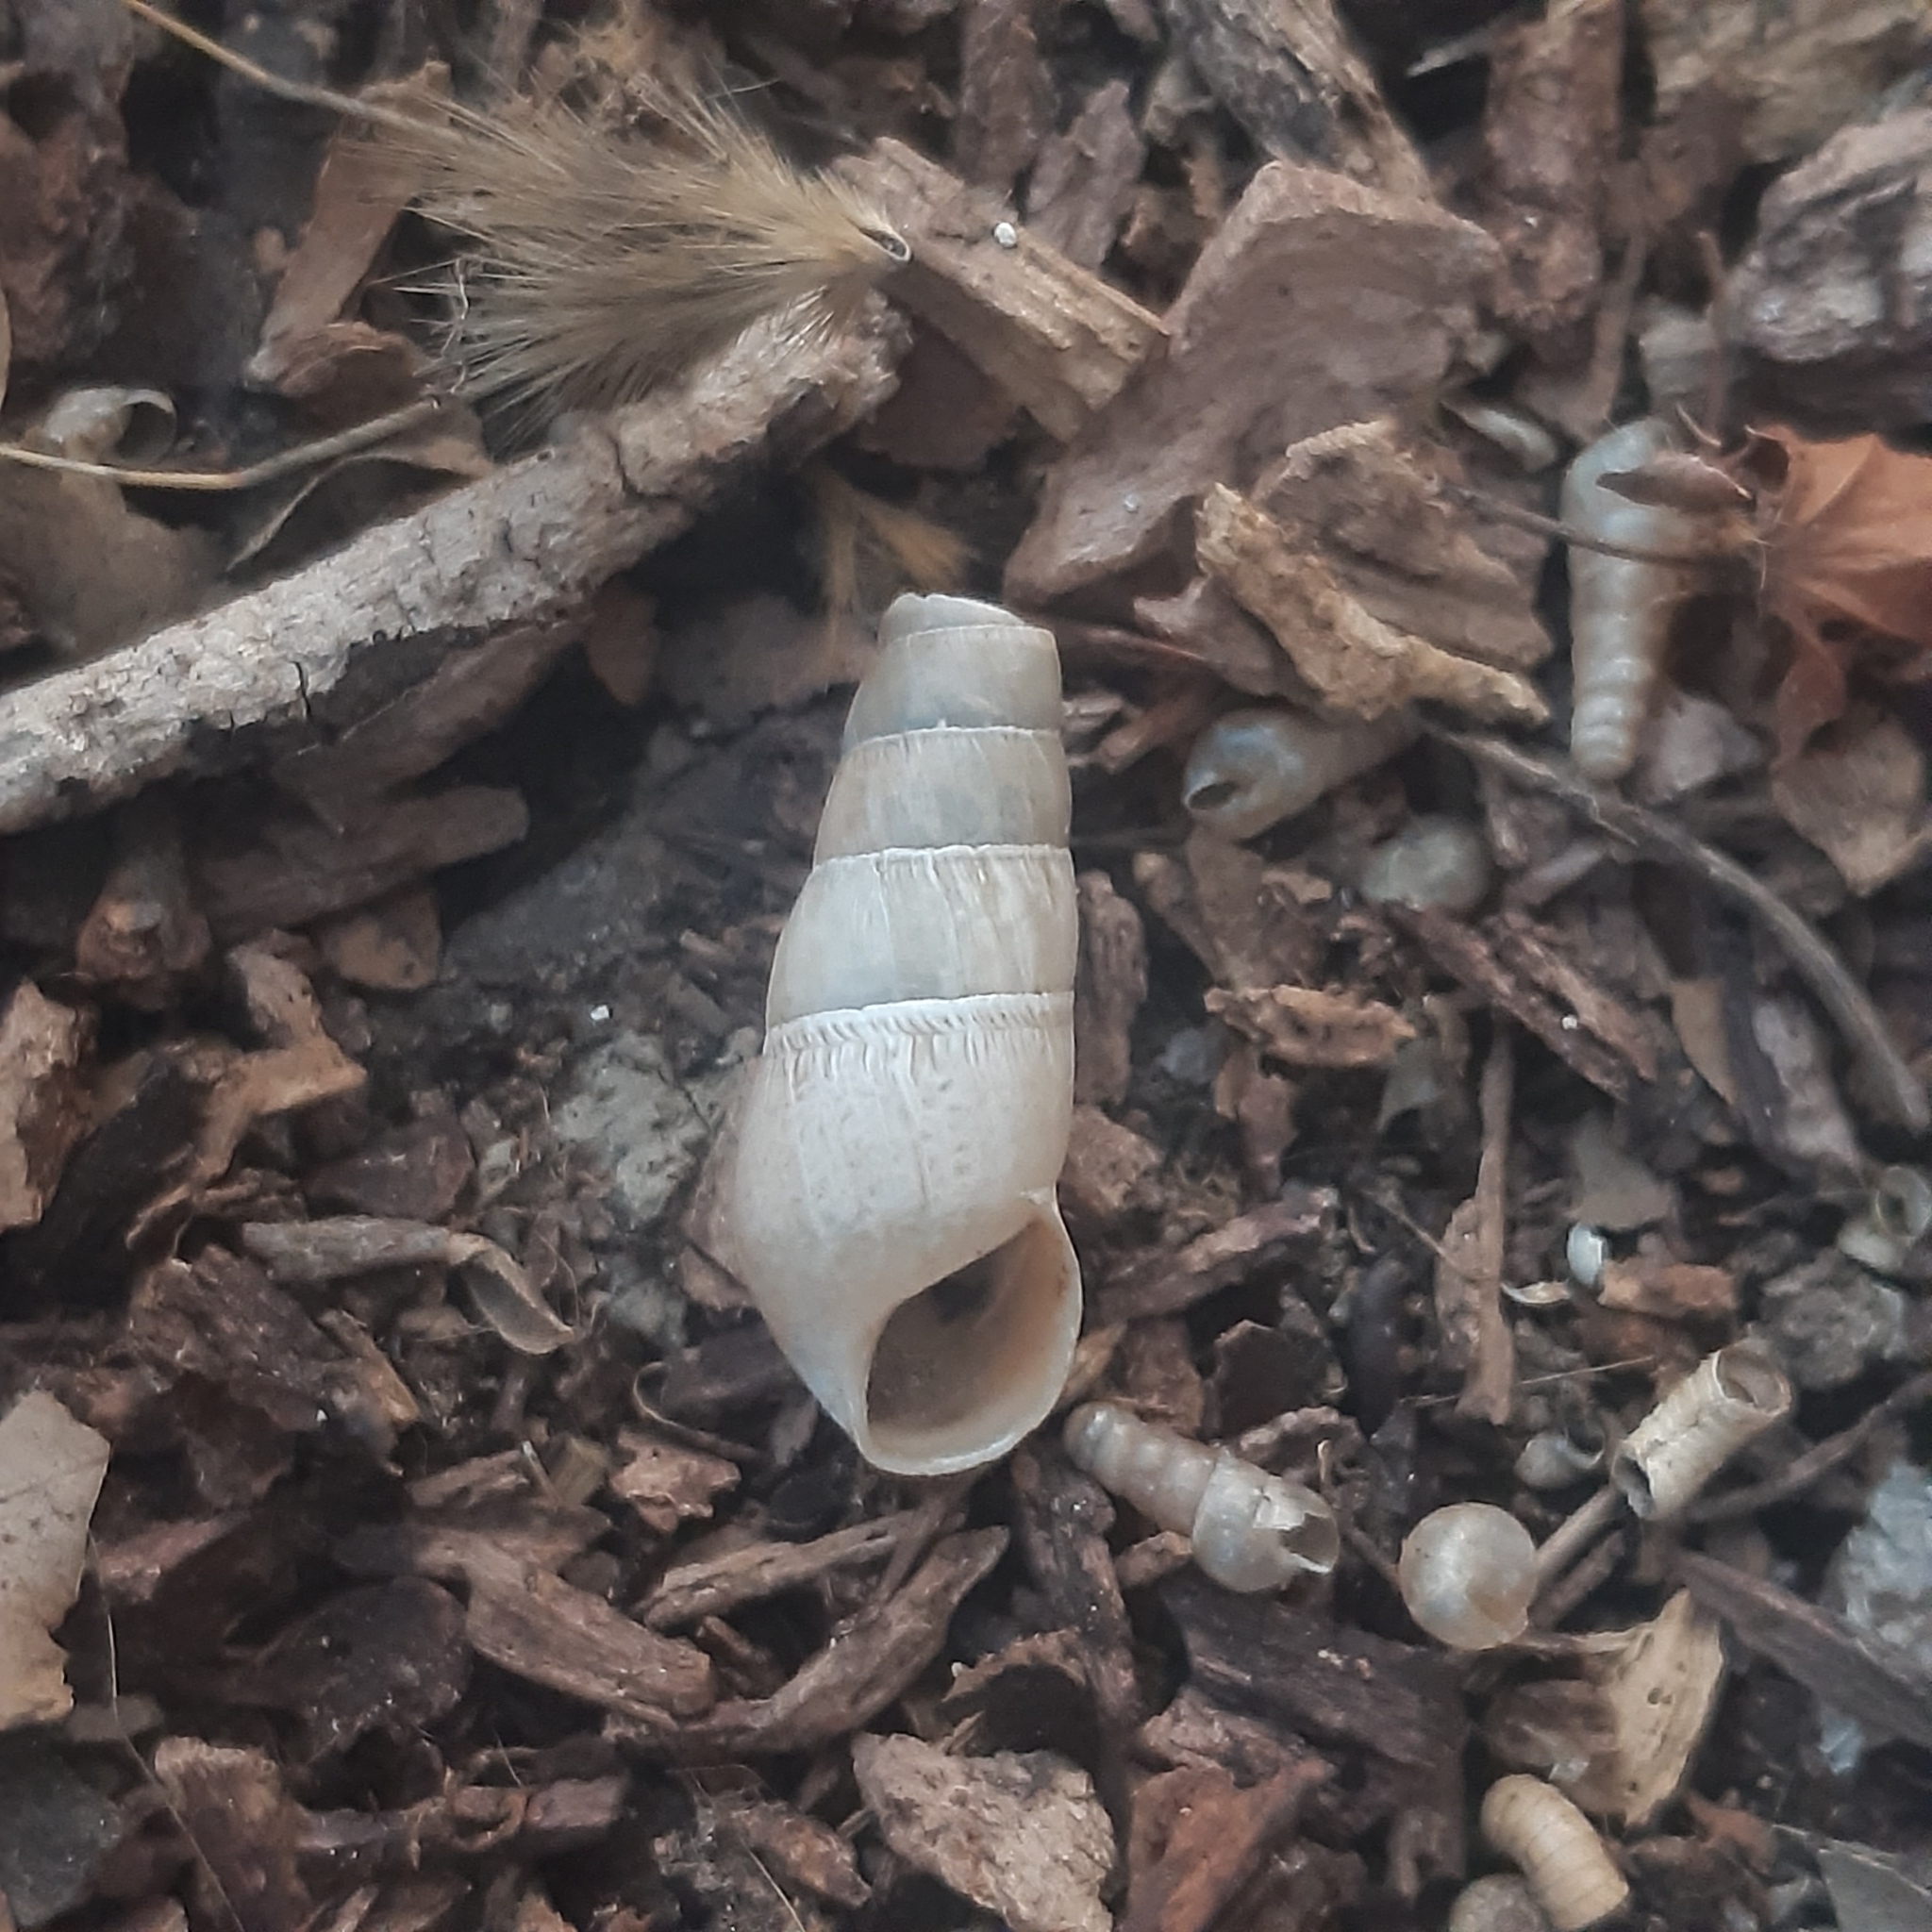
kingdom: Animalia
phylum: Mollusca
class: Gastropoda
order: Stylommatophora
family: Achatinidae
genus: Rumina
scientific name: Rumina decollata
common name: Decollate snail
